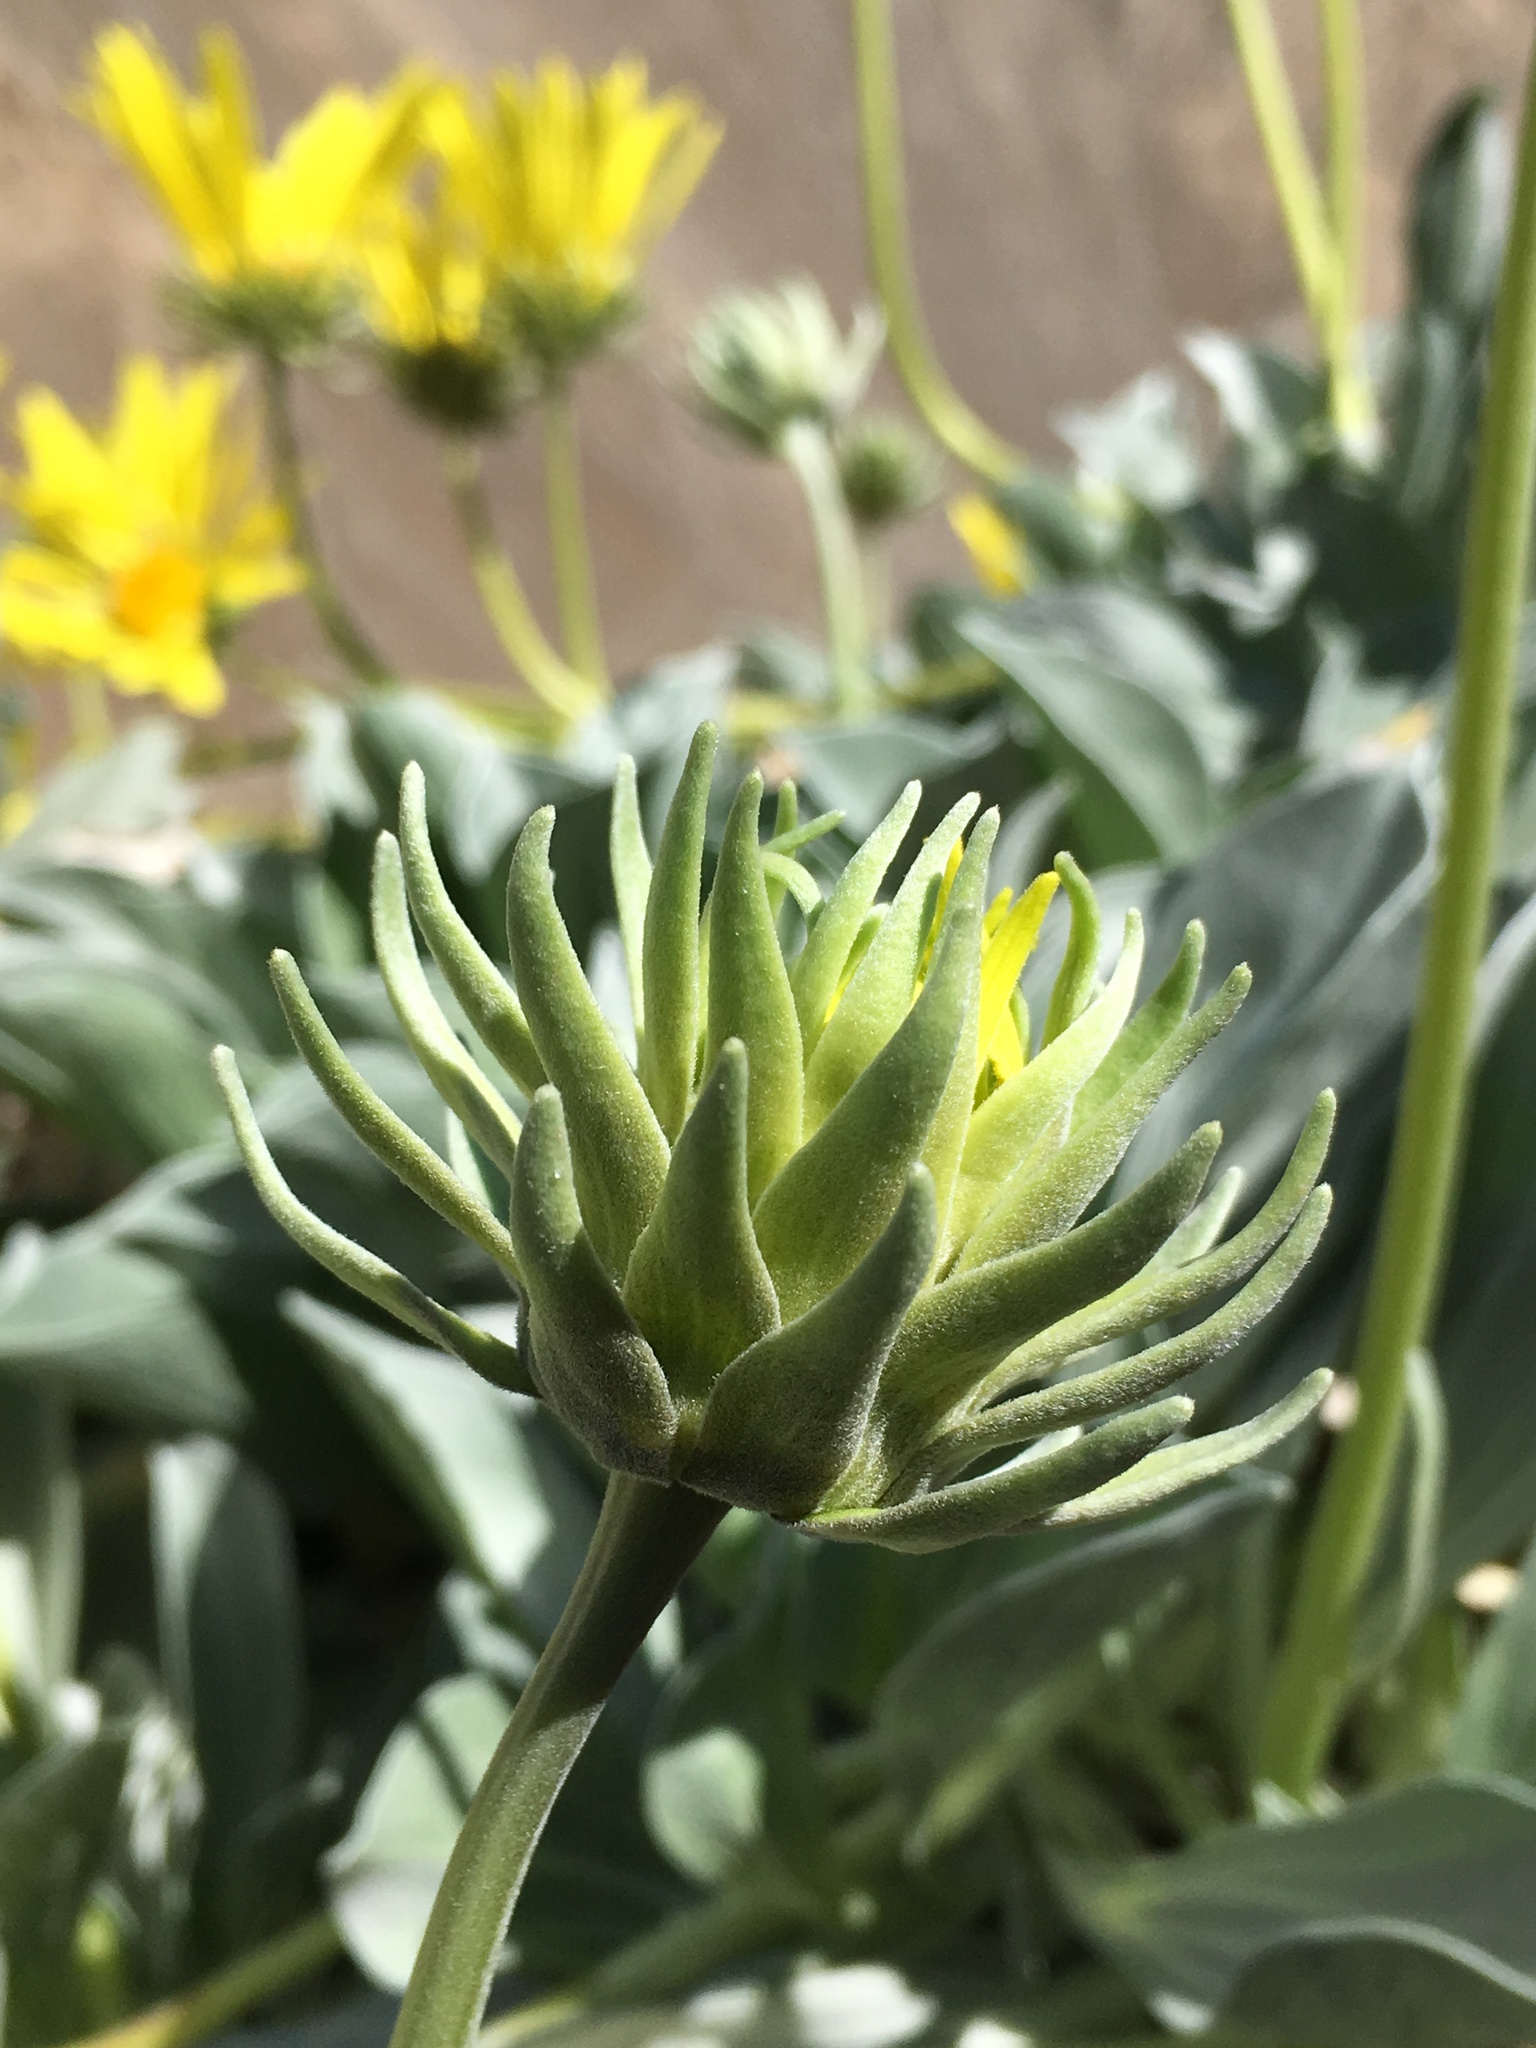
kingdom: Plantae
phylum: Tracheophyta
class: Magnoliopsida
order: Asterales
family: Asteraceae
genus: Enceliopsis
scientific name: Enceliopsis covillei
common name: Panamint daisy
